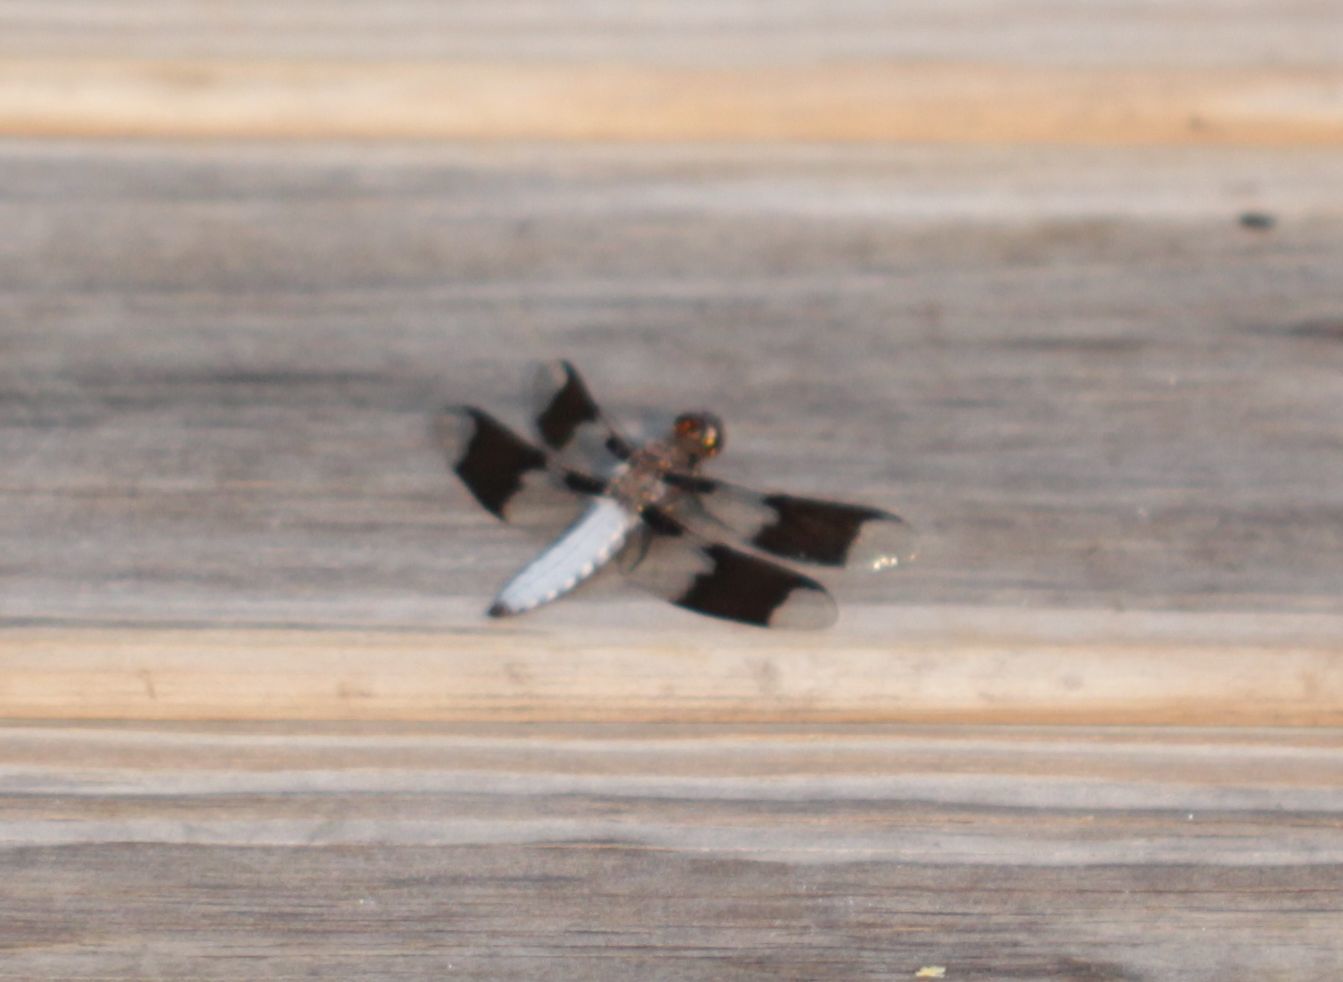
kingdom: Animalia
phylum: Arthropoda
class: Insecta
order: Odonata
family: Libellulidae
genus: Plathemis
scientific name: Plathemis lydia
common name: Common whitetail
